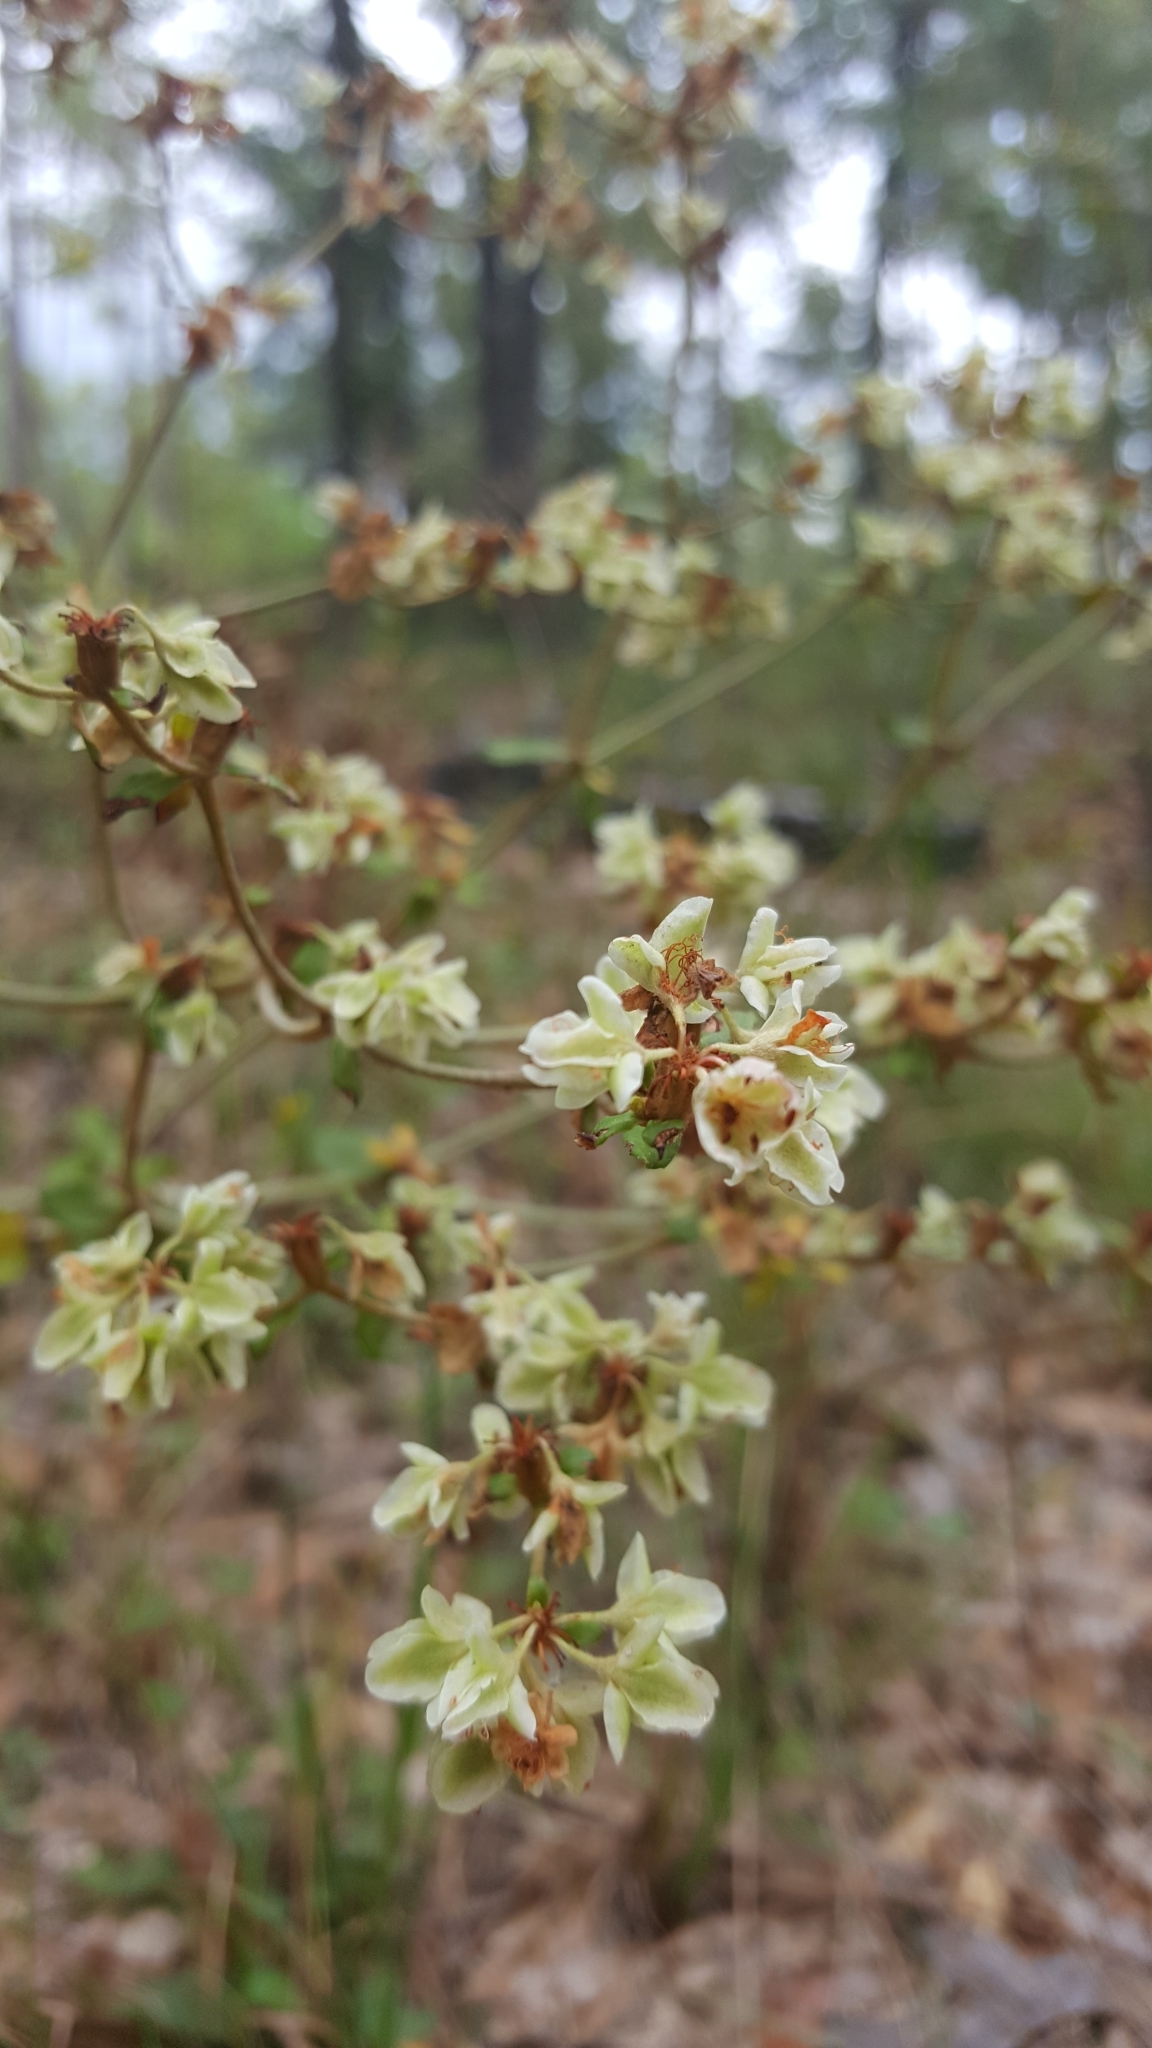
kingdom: Plantae
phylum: Tracheophyta
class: Magnoliopsida
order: Caryophyllales
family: Polygonaceae
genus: Eriogonum
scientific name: Eriogonum tomentosum
